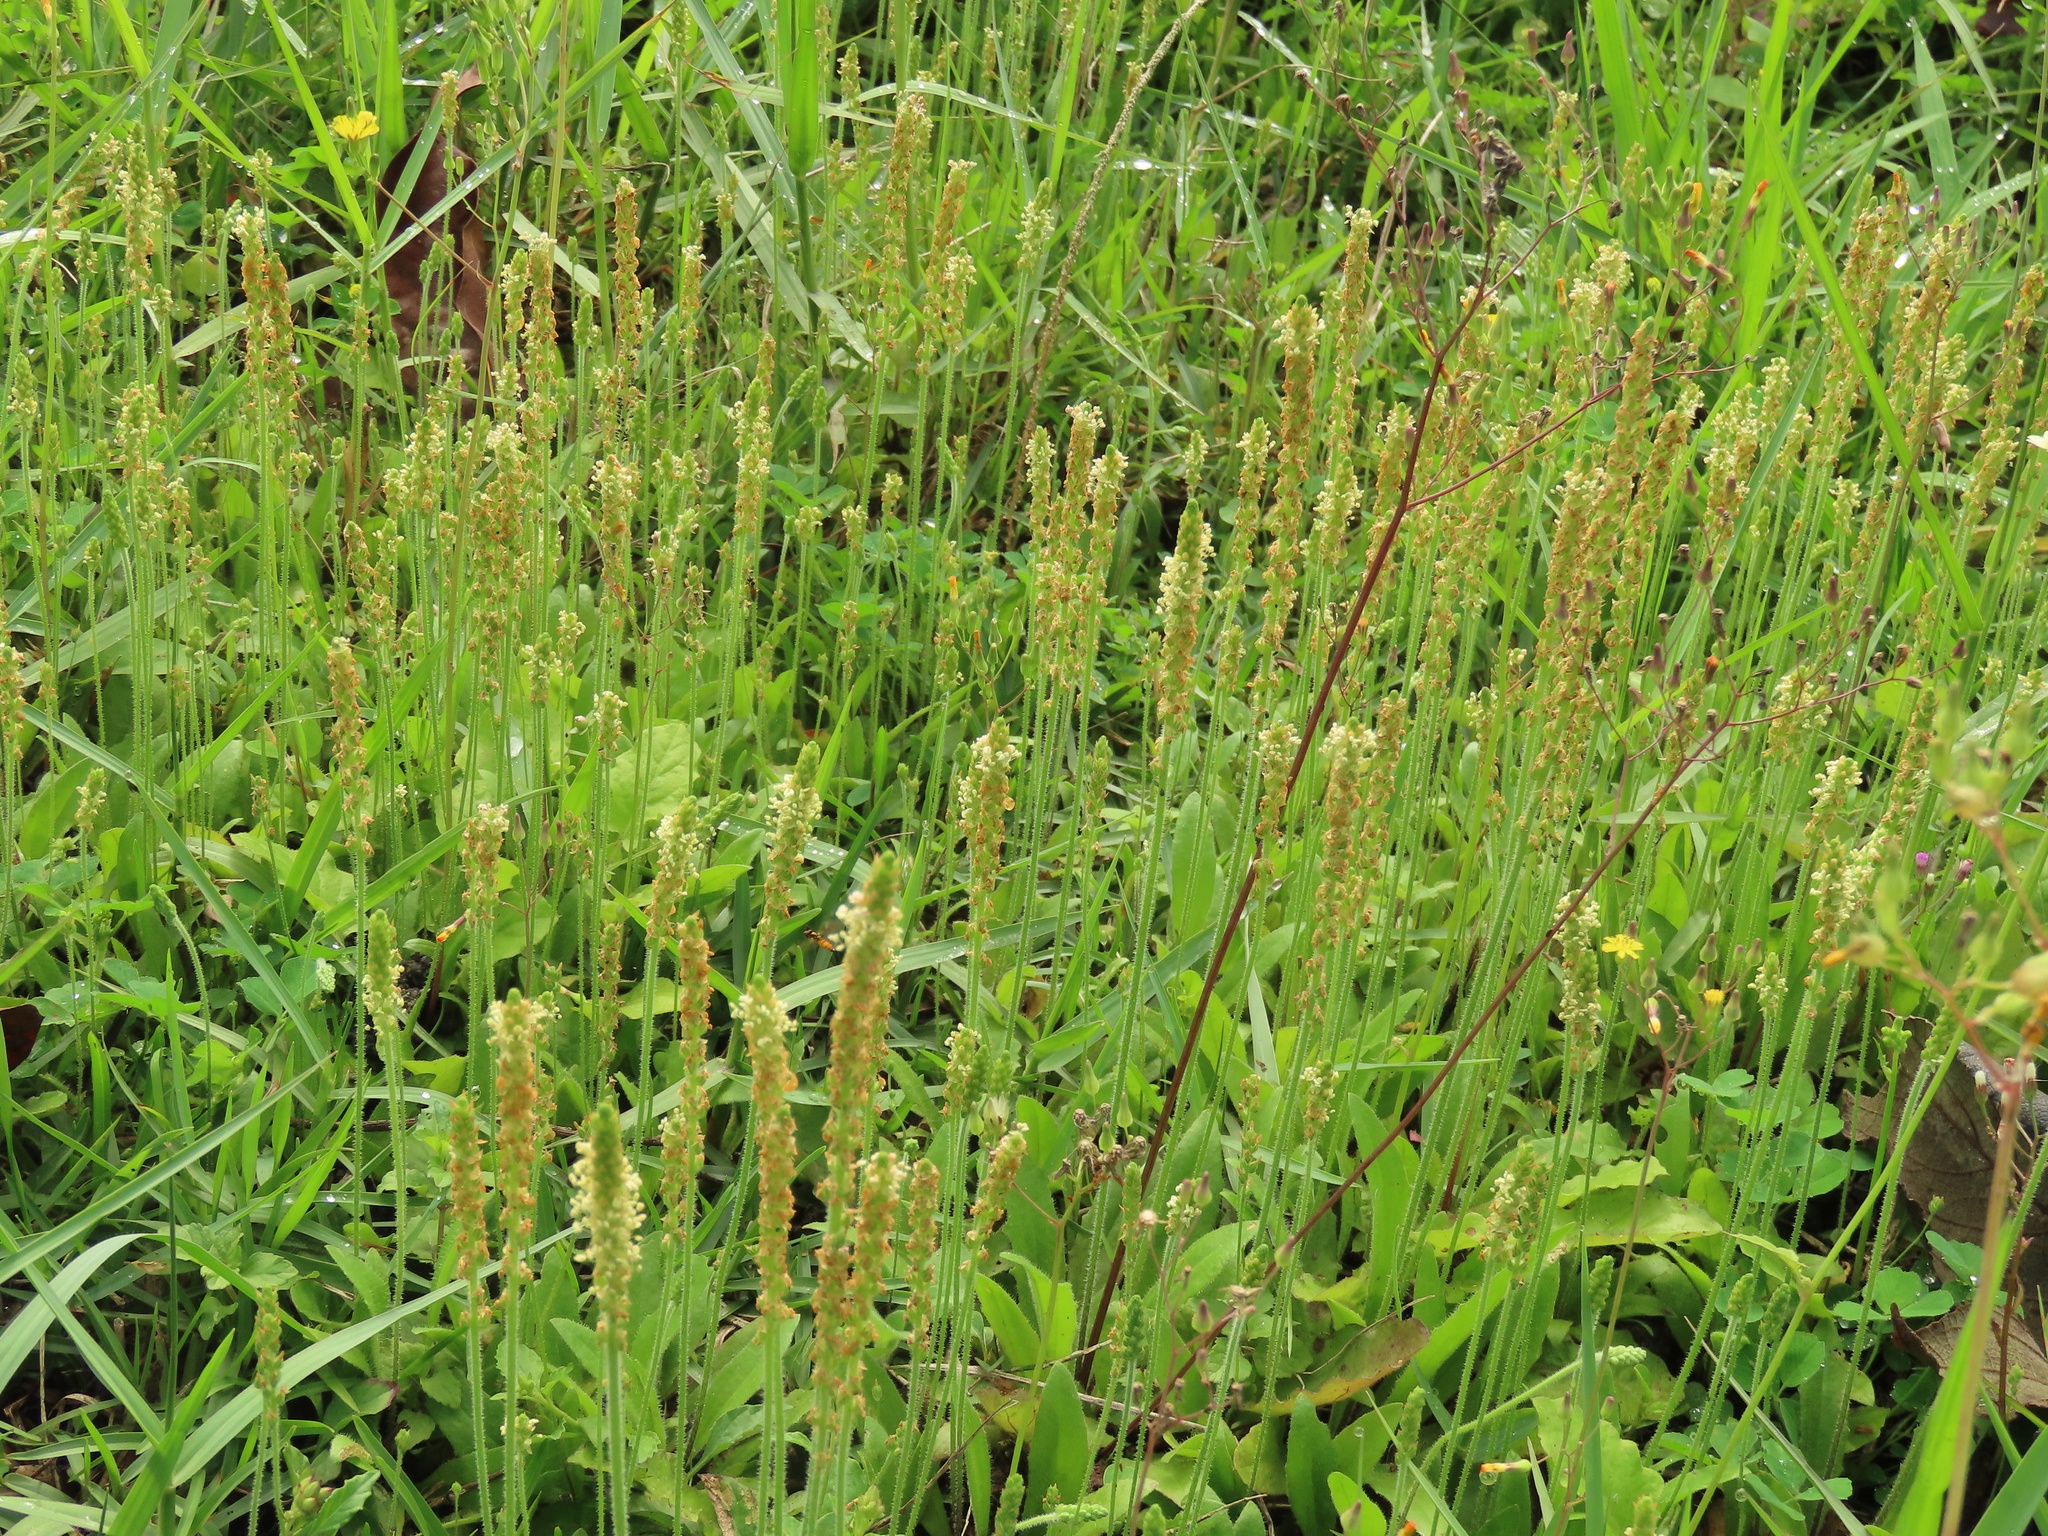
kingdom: Plantae
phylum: Tracheophyta
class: Magnoliopsida
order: Lamiales
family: Plantaginaceae
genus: Plantago
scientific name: Plantago virginica
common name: Hoary plantain
